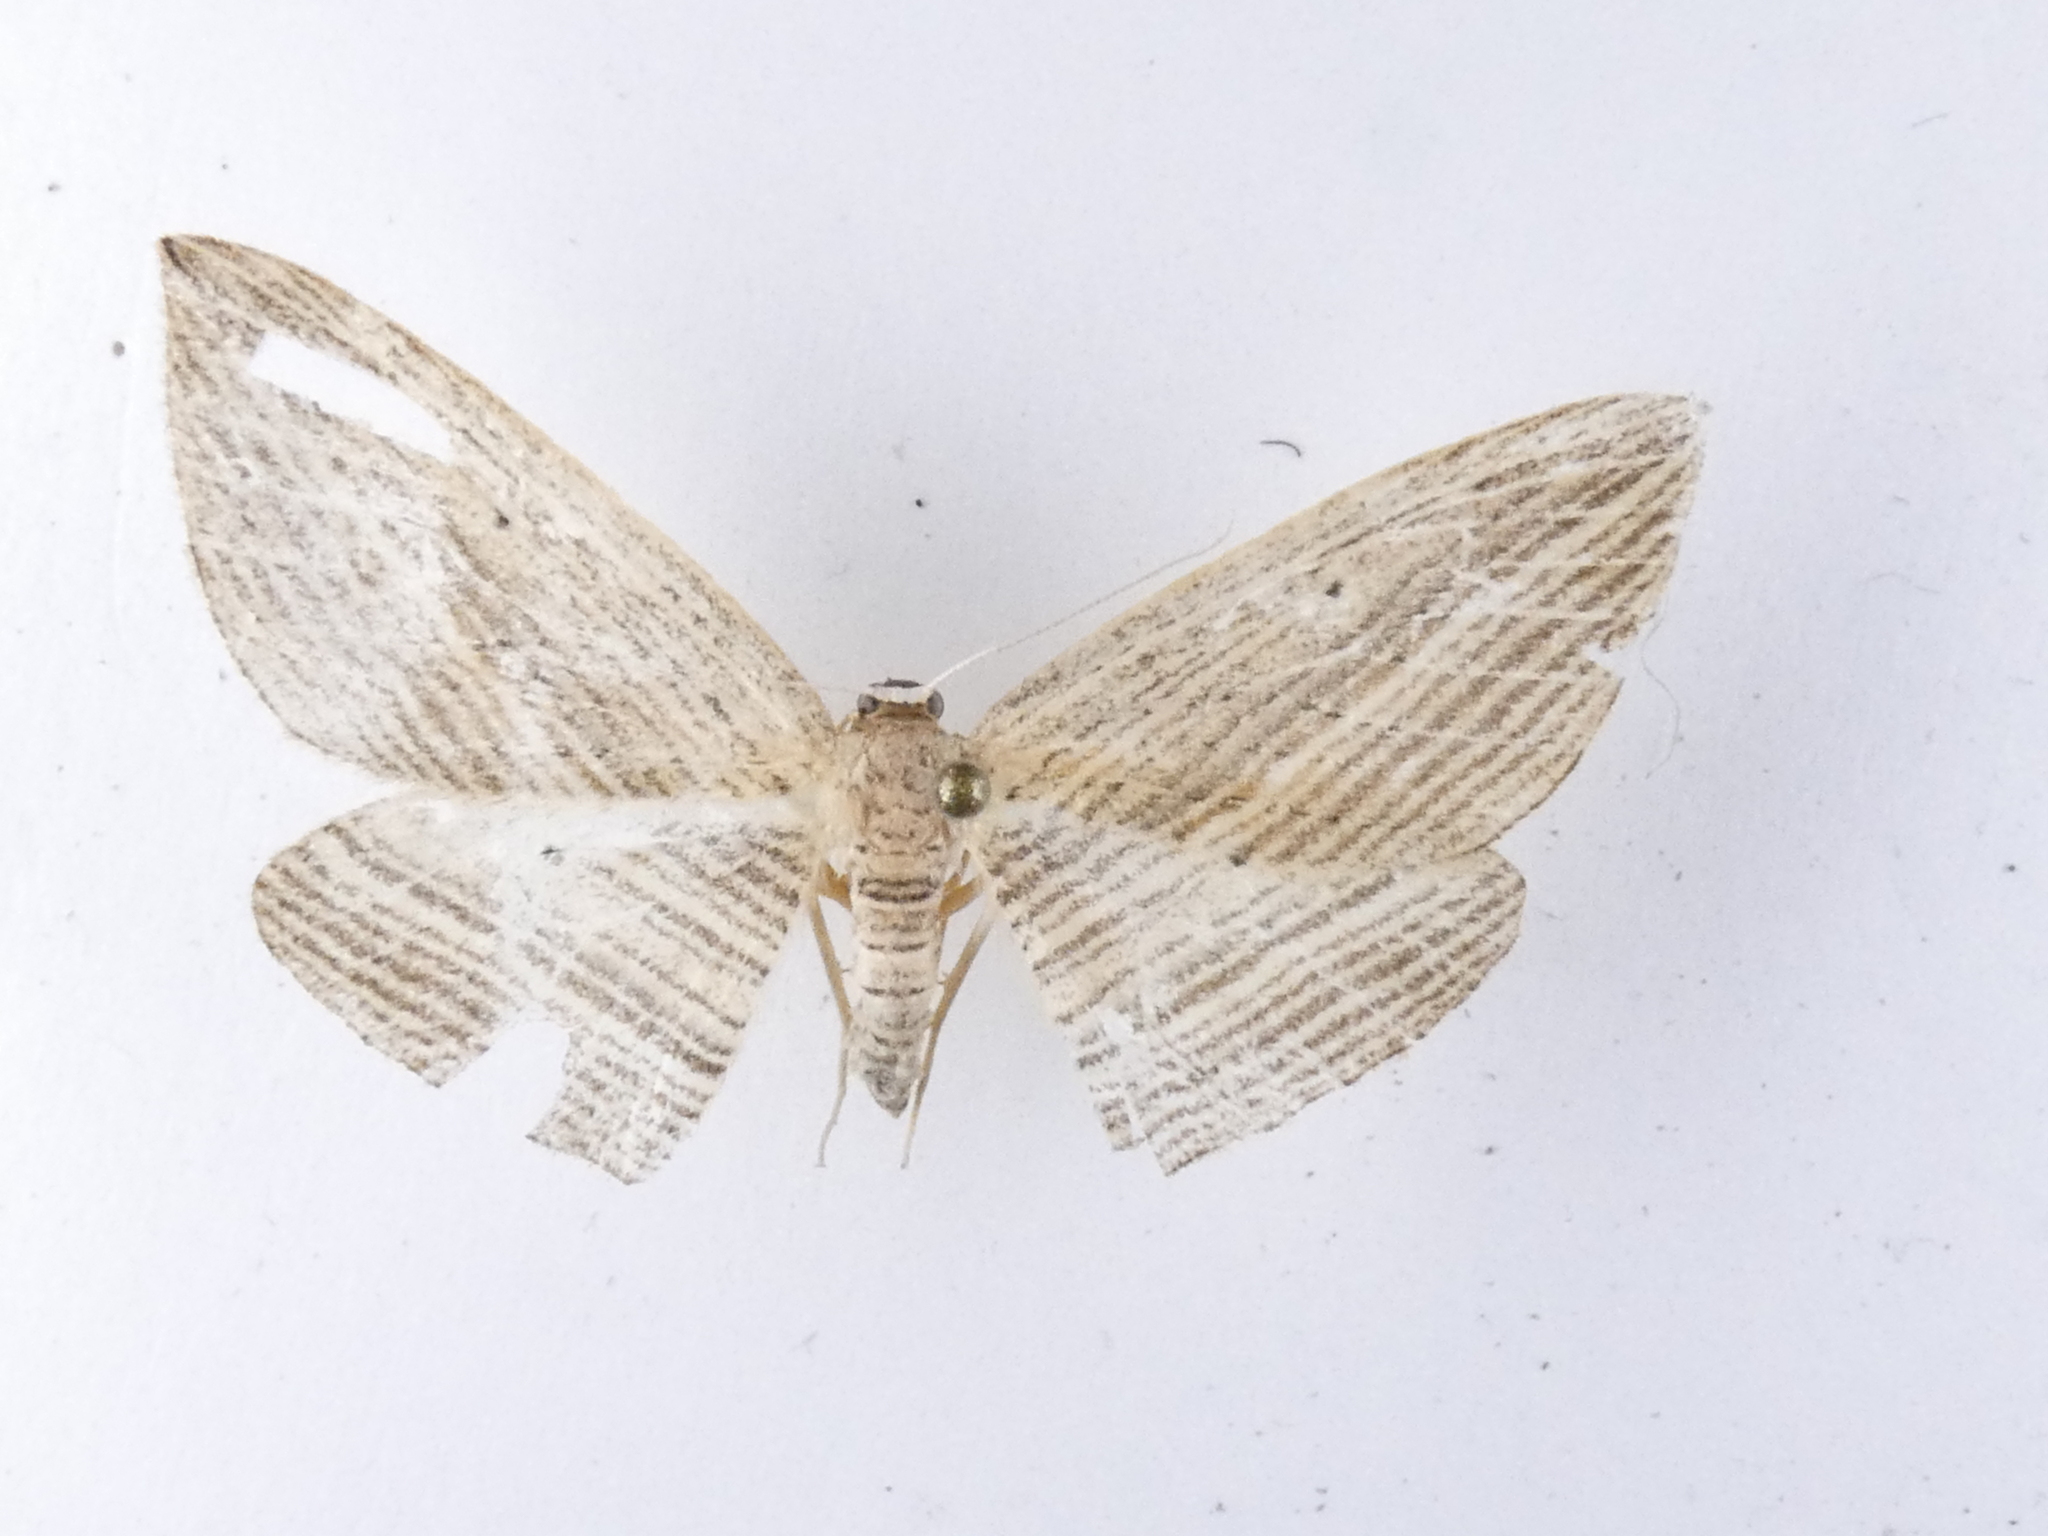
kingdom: Animalia
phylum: Arthropoda
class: Insecta
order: Lepidoptera
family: Geometridae
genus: Epiphryne
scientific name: Epiphryne verriculata
